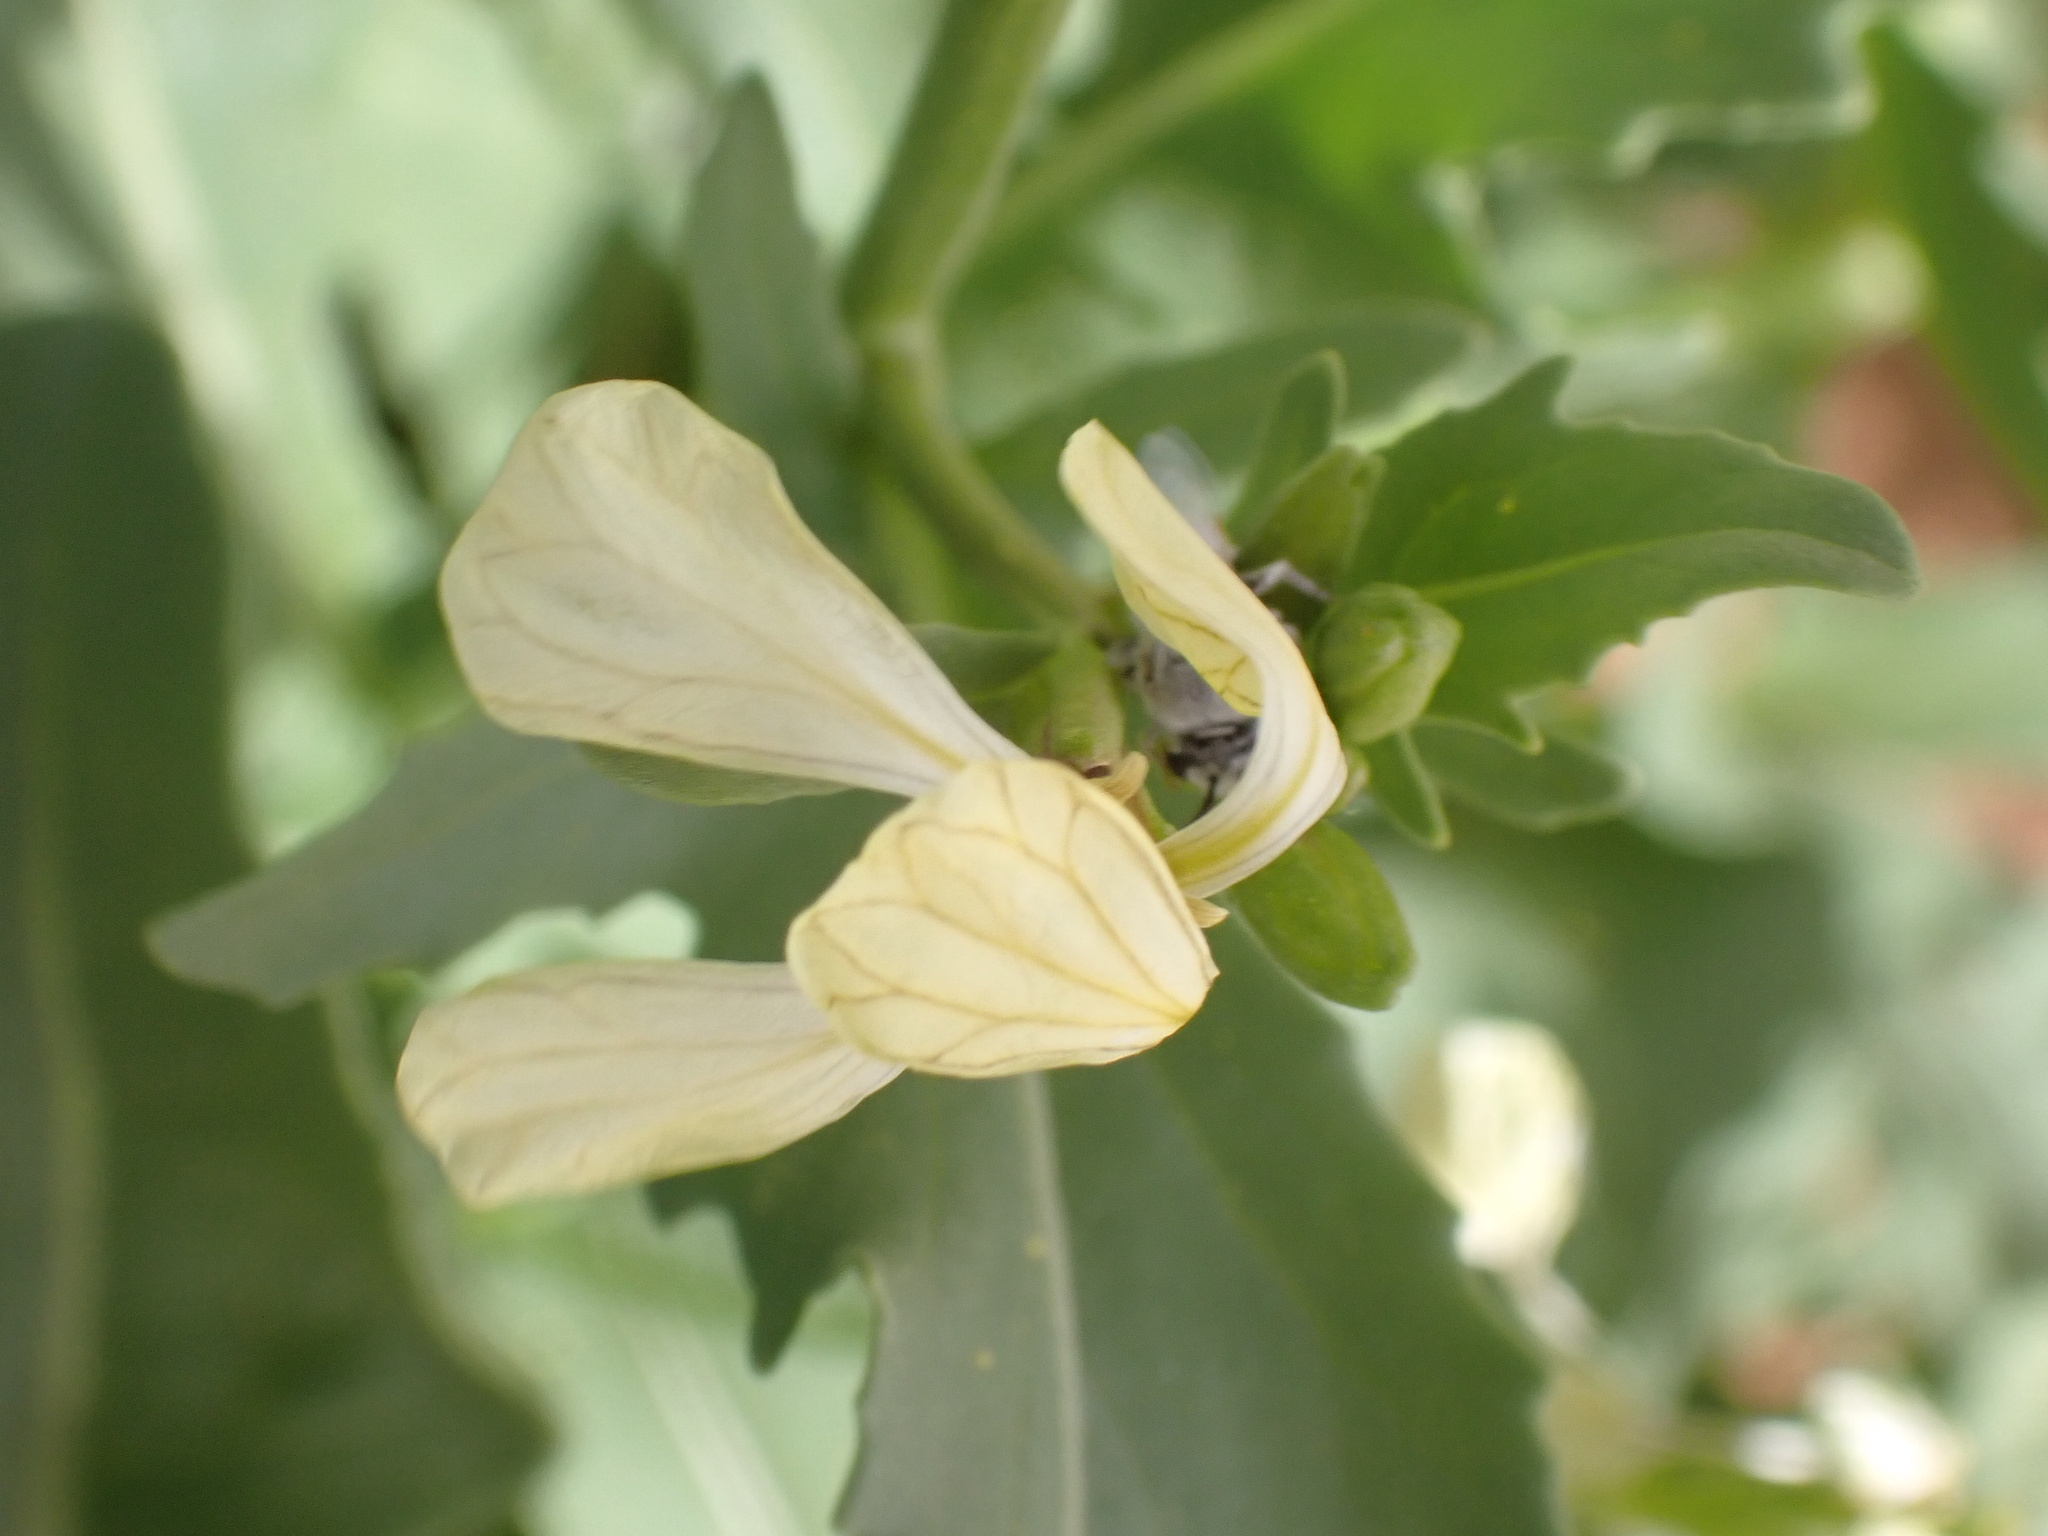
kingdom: Plantae
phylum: Tracheophyta
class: Magnoliopsida
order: Brassicales
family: Brassicaceae
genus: Eruca
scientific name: Eruca vesicaria
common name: Garden rocket
